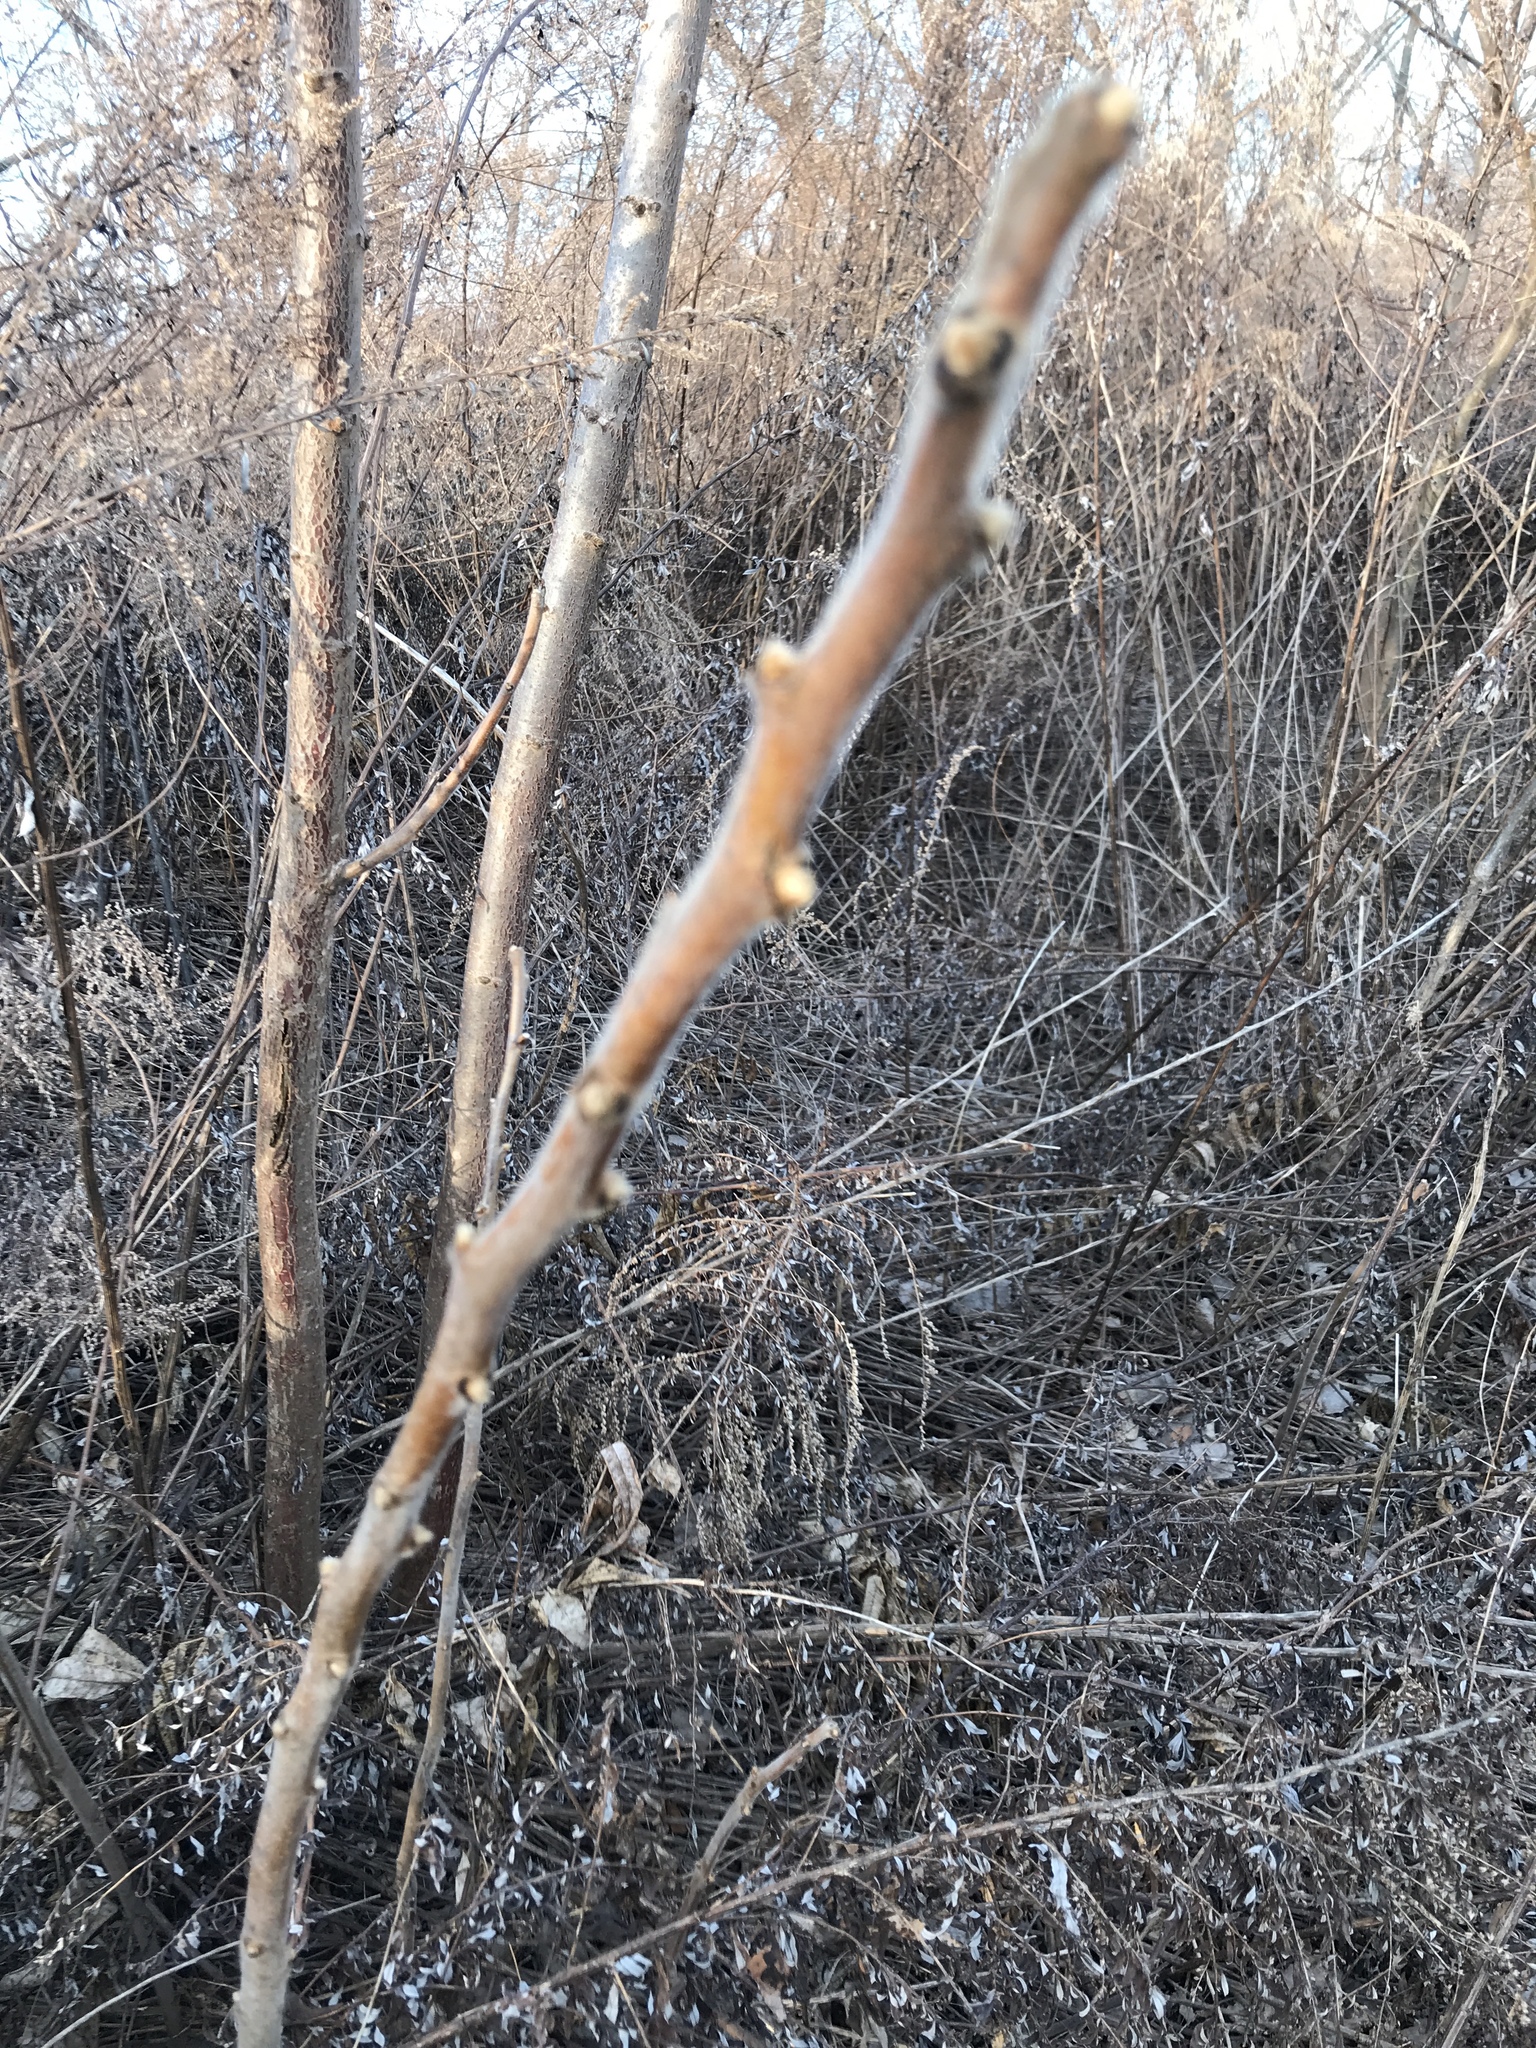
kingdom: Plantae
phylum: Tracheophyta
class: Magnoliopsida
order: Sapindales
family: Anacardiaceae
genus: Rhus
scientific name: Rhus typhina
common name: Staghorn sumac
